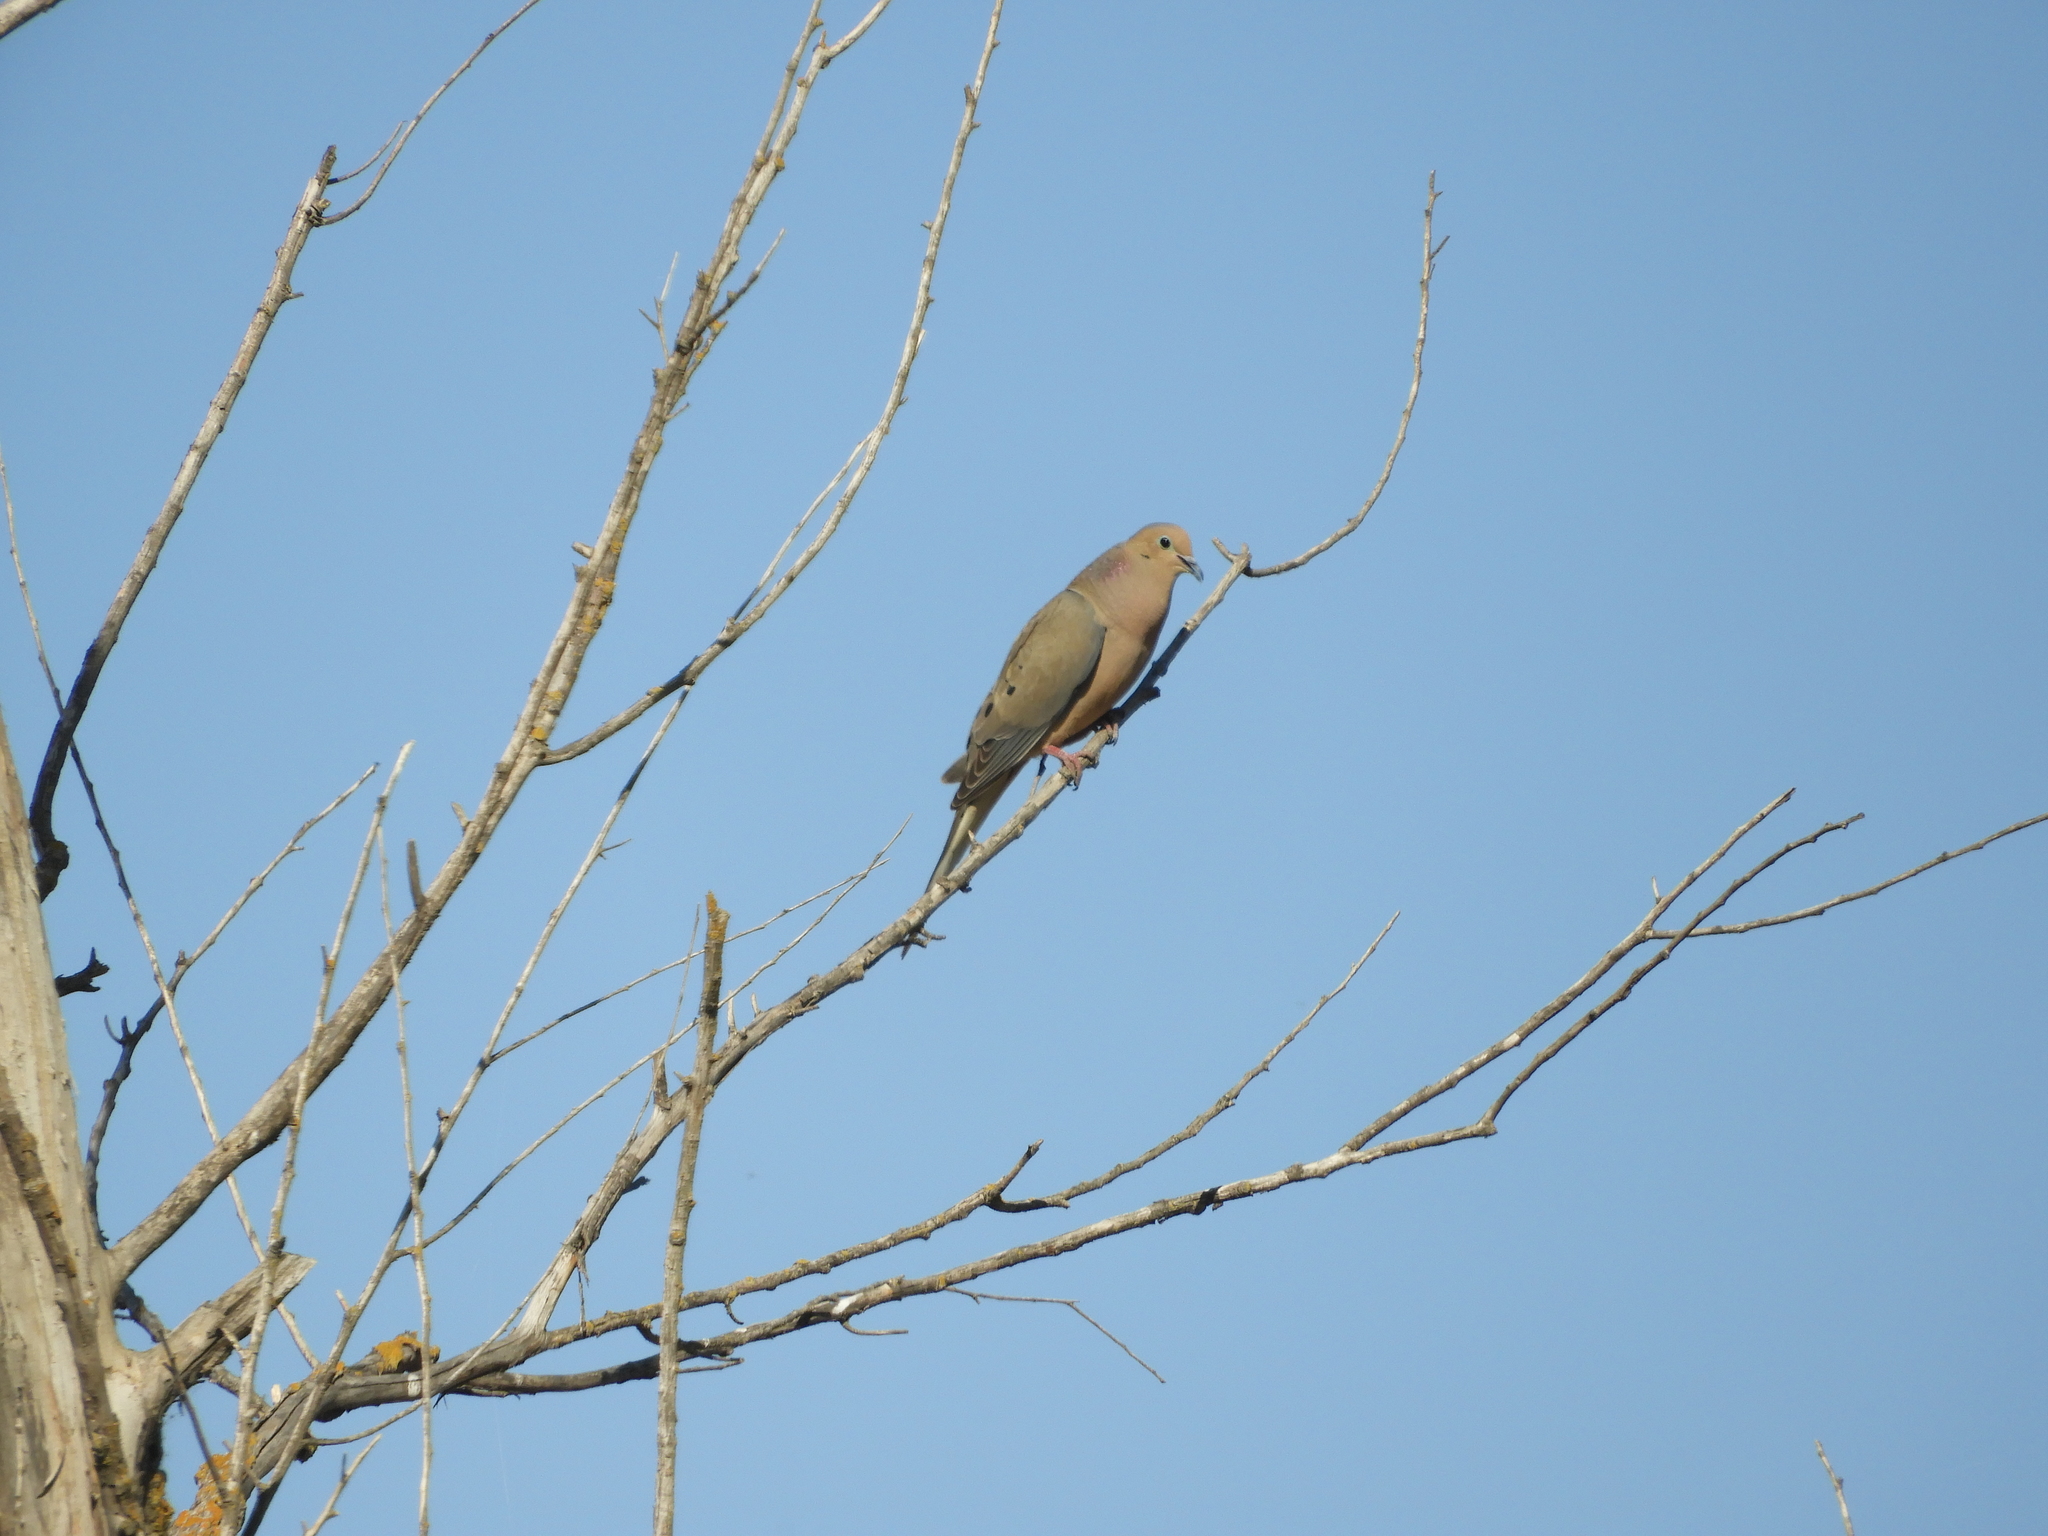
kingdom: Animalia
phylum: Chordata
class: Aves
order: Columbiformes
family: Columbidae
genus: Zenaida
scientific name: Zenaida macroura
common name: Mourning dove
